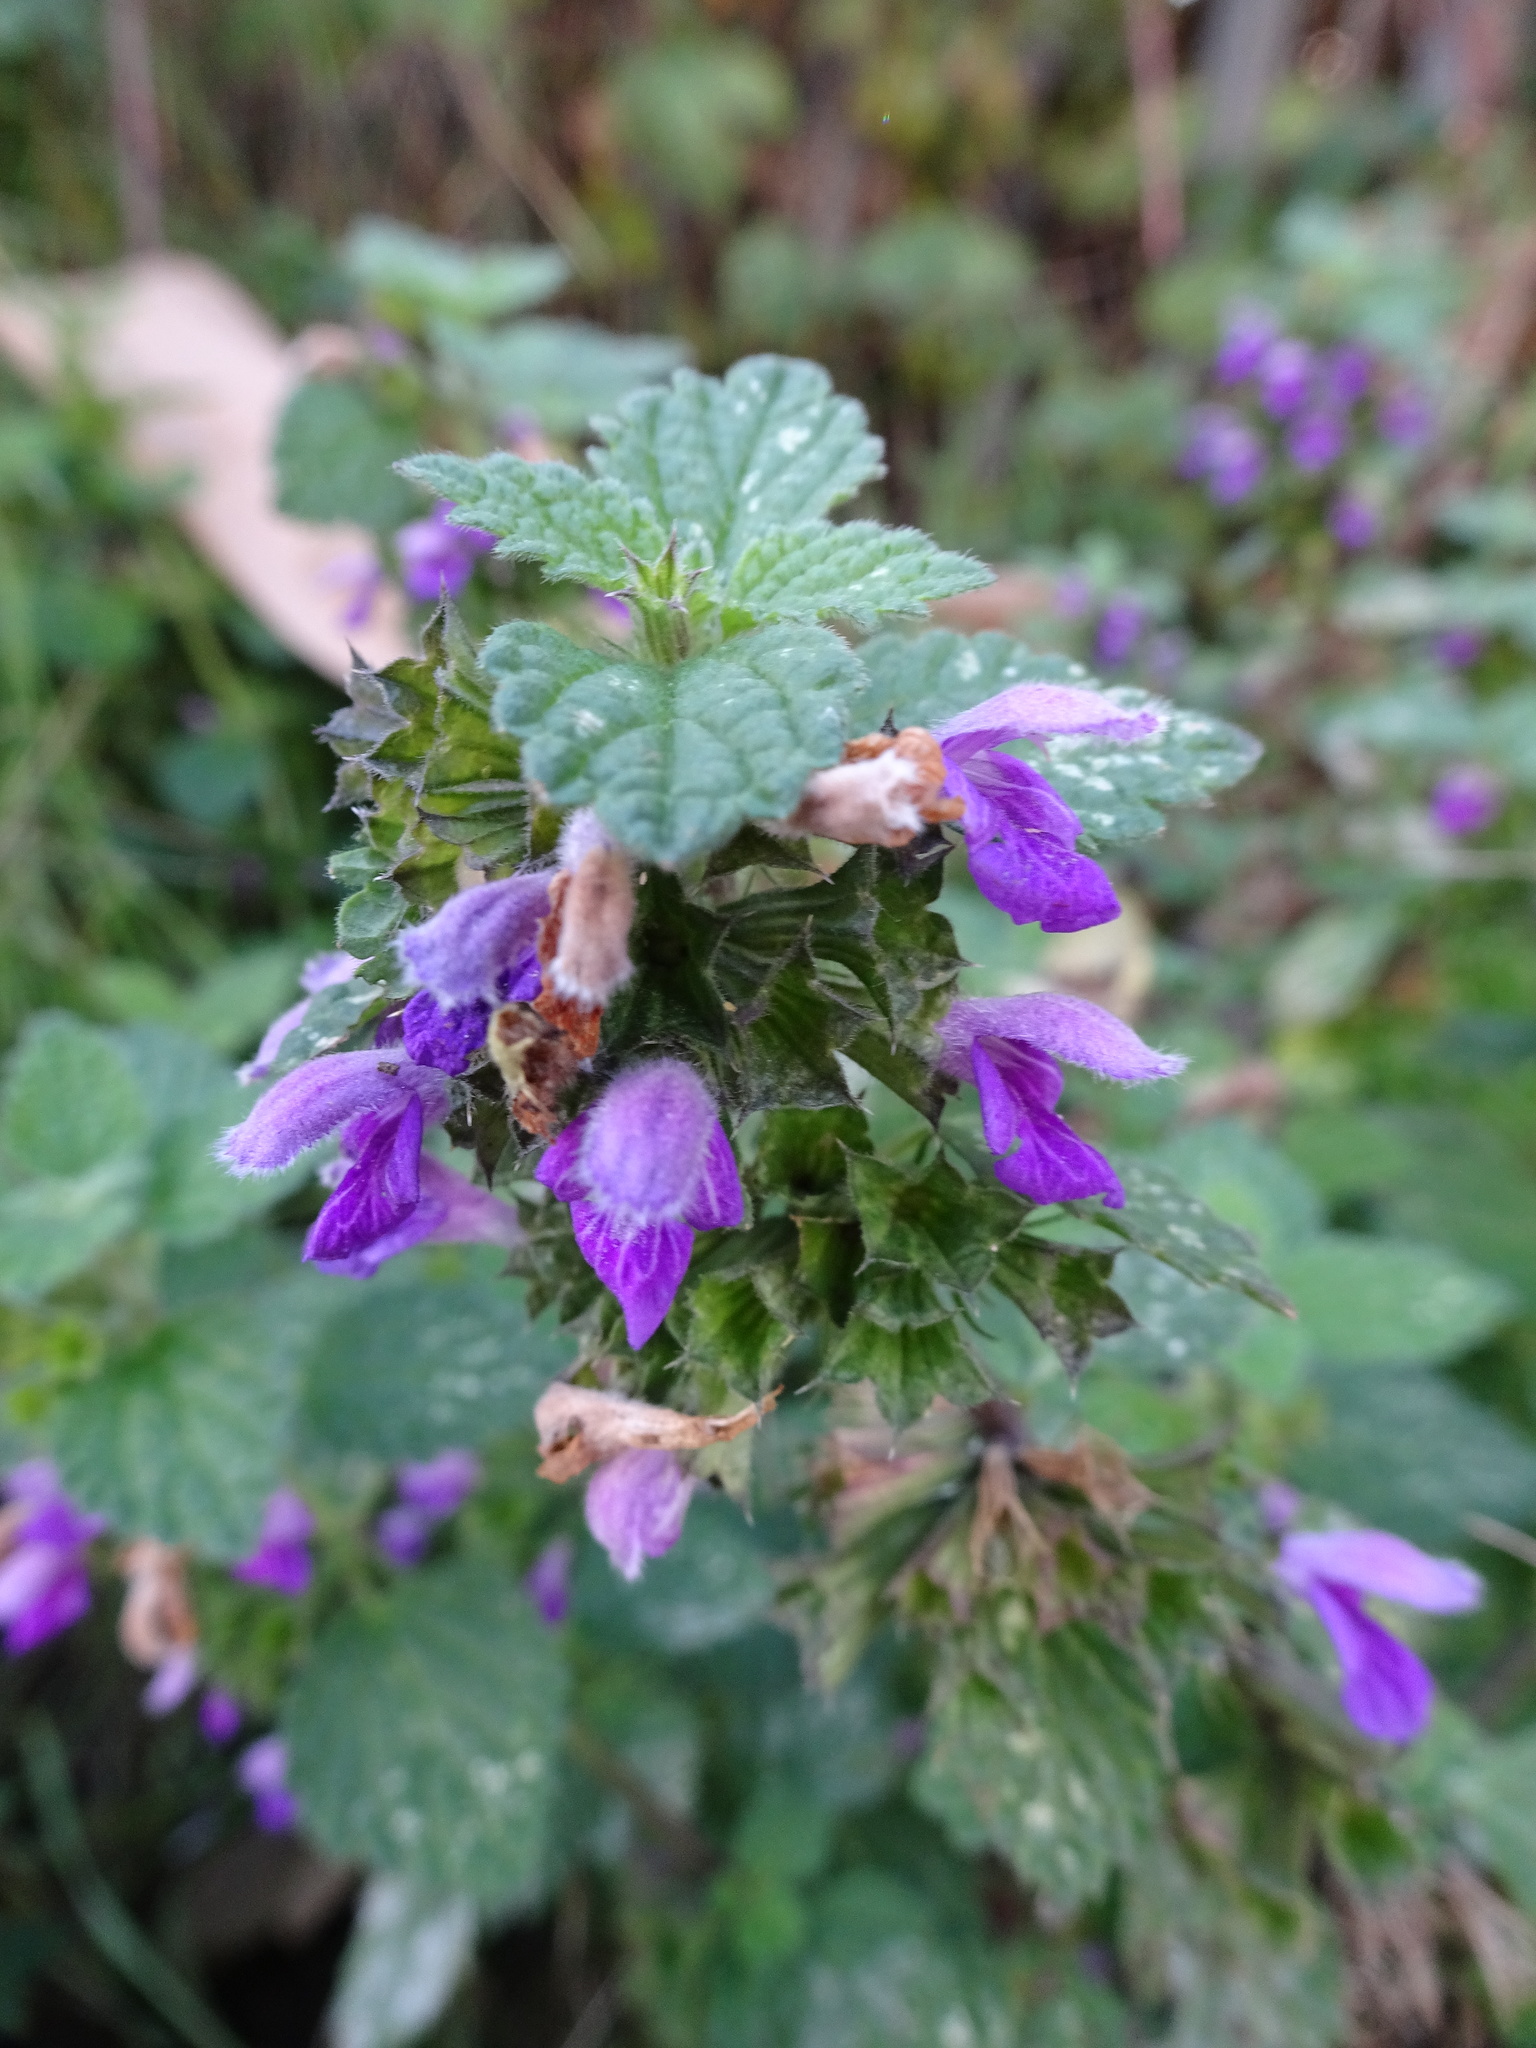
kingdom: Plantae
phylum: Tracheophyta
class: Magnoliopsida
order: Lamiales
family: Lamiaceae
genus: Ballota
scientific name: Ballota nigra
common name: Black horehound
